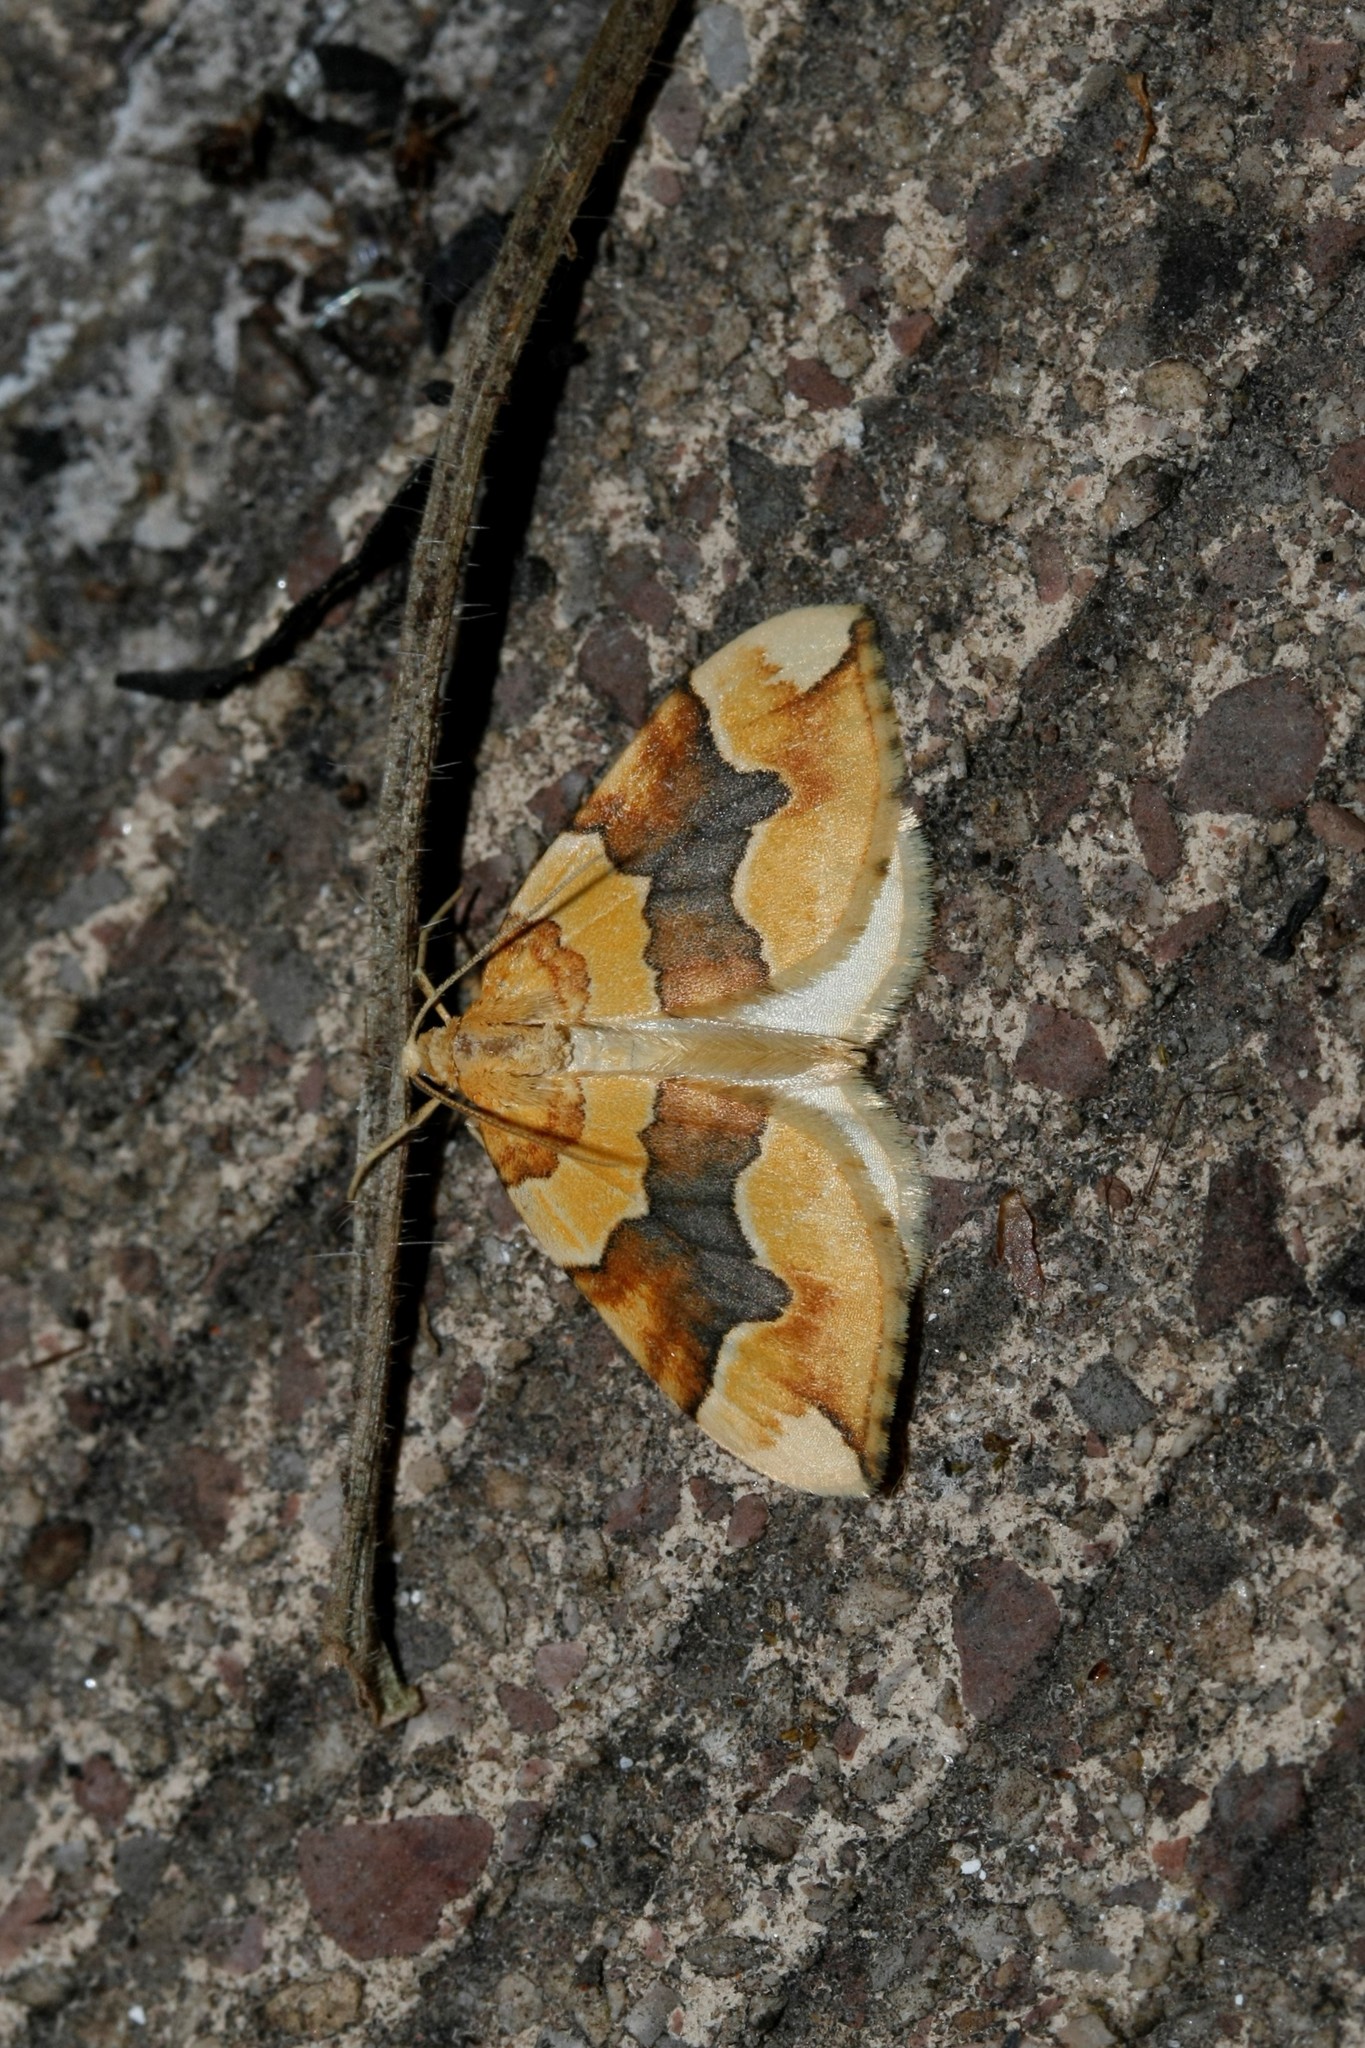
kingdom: Animalia
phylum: Arthropoda
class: Insecta
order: Lepidoptera
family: Geometridae
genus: Cidaria
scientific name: Cidaria fulvata
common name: Barred yellow
